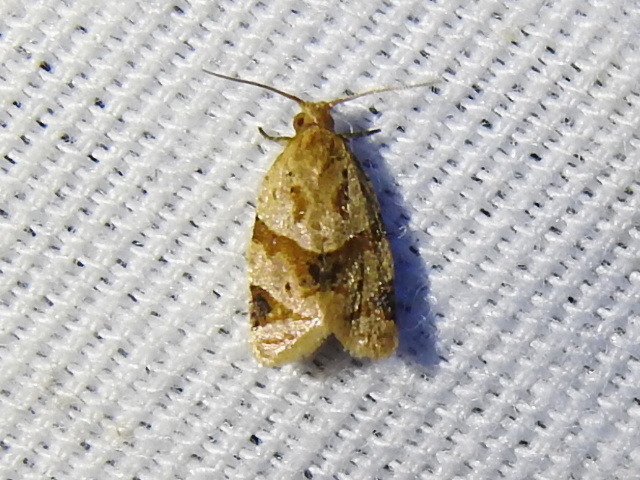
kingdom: Animalia
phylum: Arthropoda
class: Insecta
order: Lepidoptera
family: Tortricidae
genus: Clepsis
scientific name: Clepsis peritana
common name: Garden tortrix
